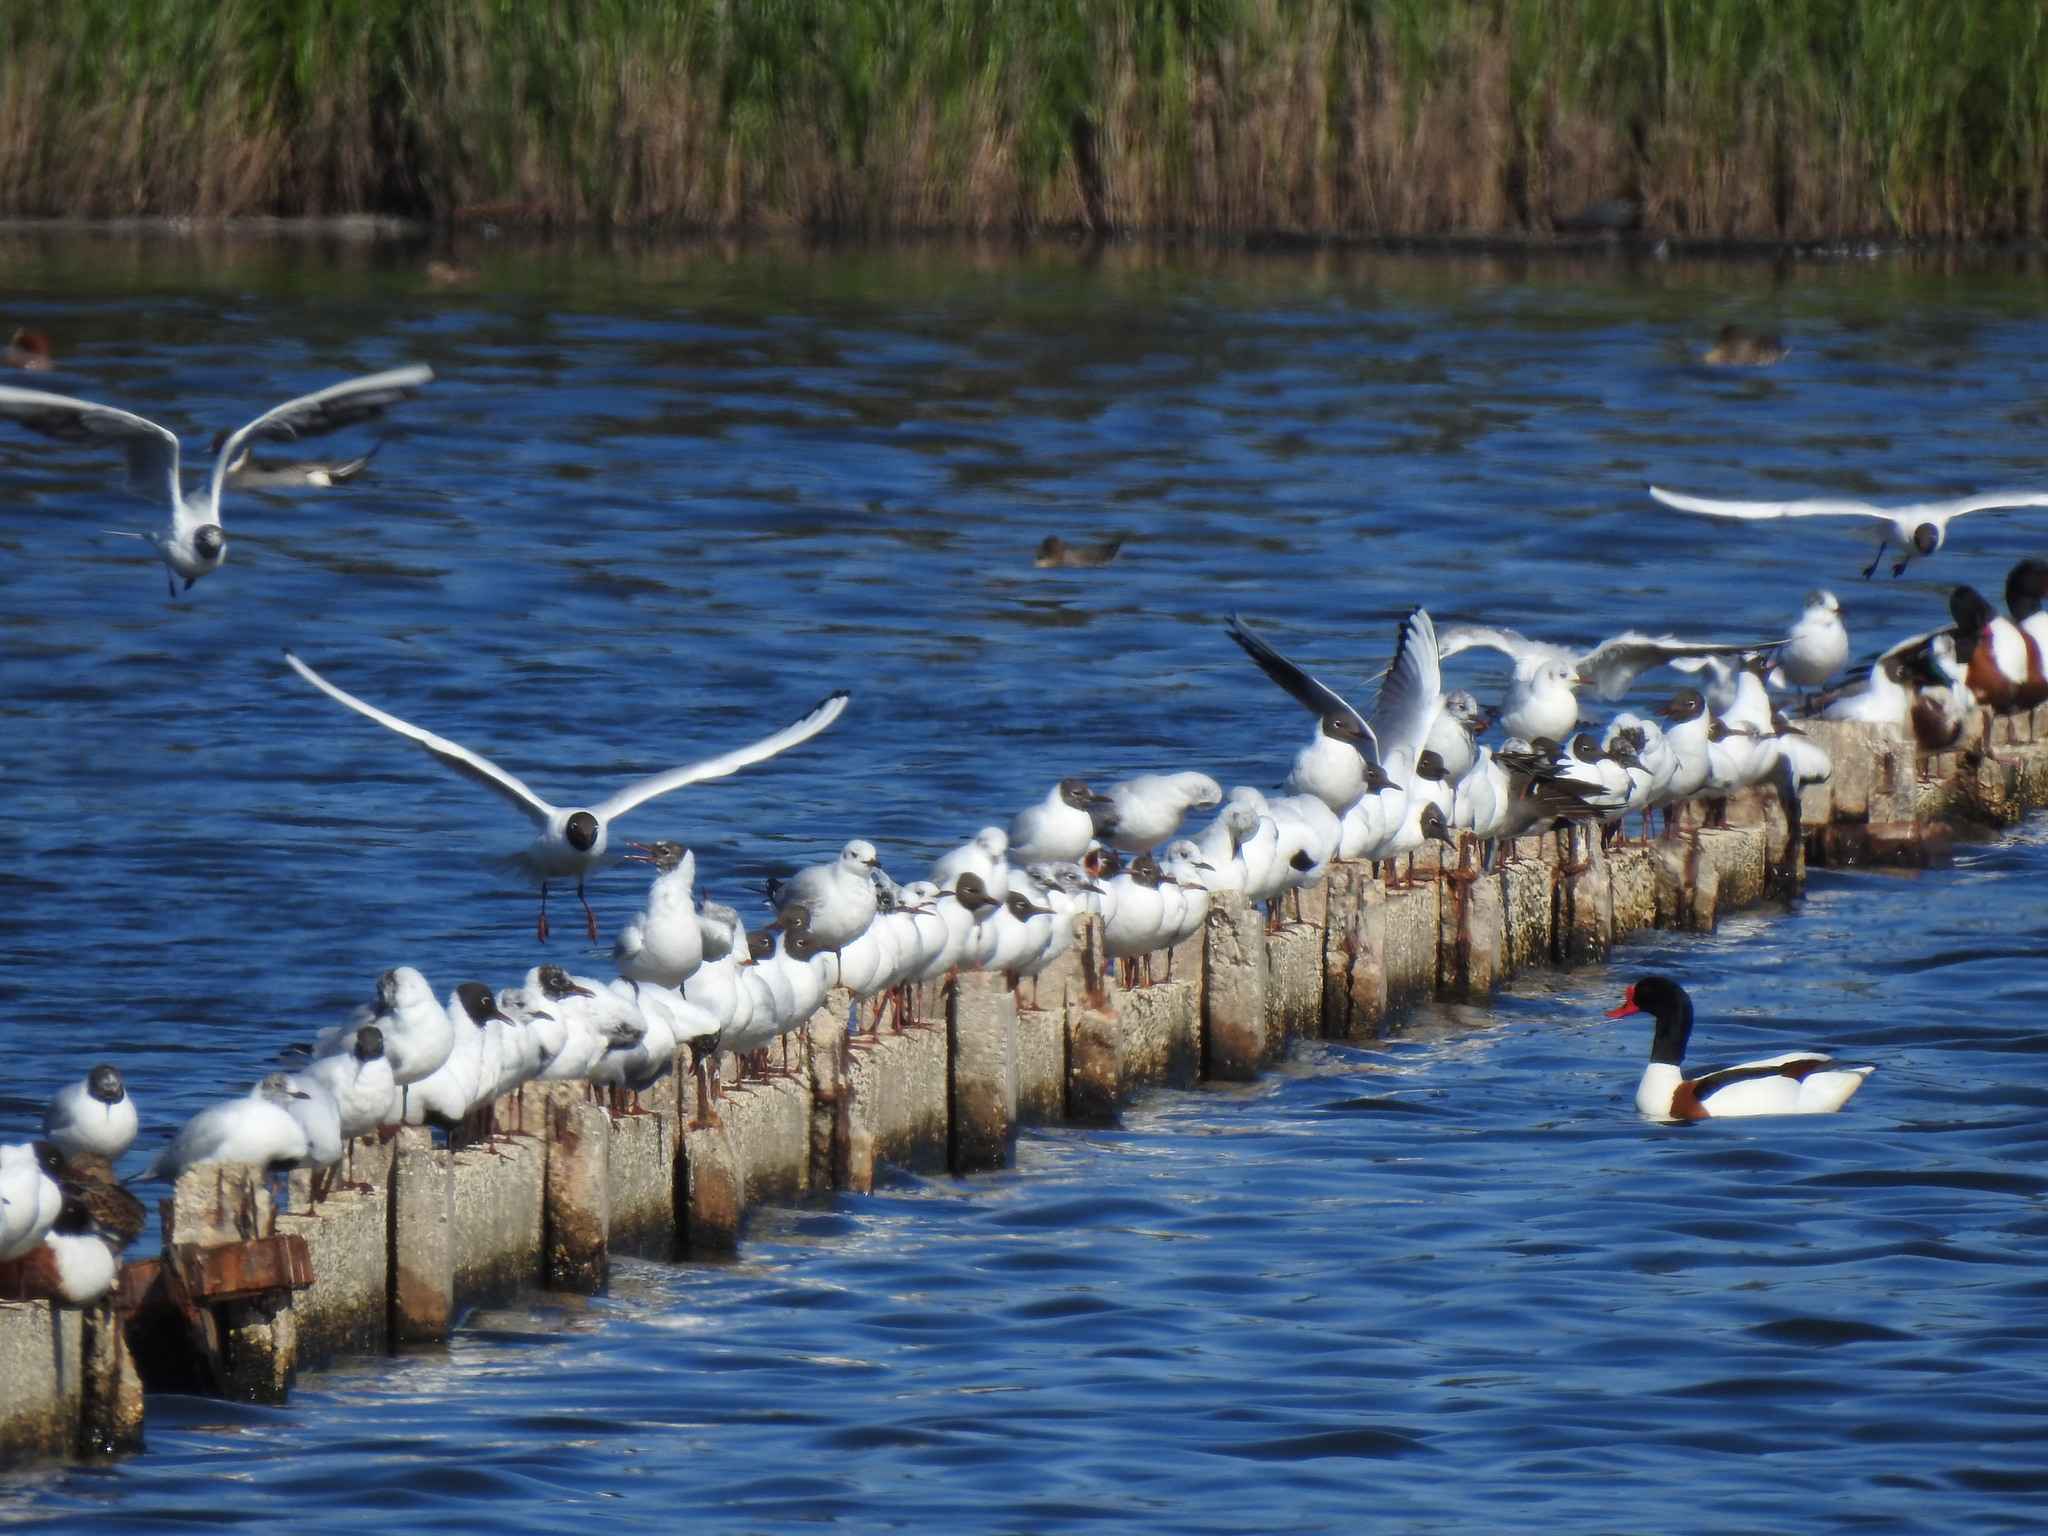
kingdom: Animalia
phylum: Chordata
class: Aves
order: Charadriiformes
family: Laridae
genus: Chroicocephalus
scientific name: Chroicocephalus ridibundus
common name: Black-headed gull
